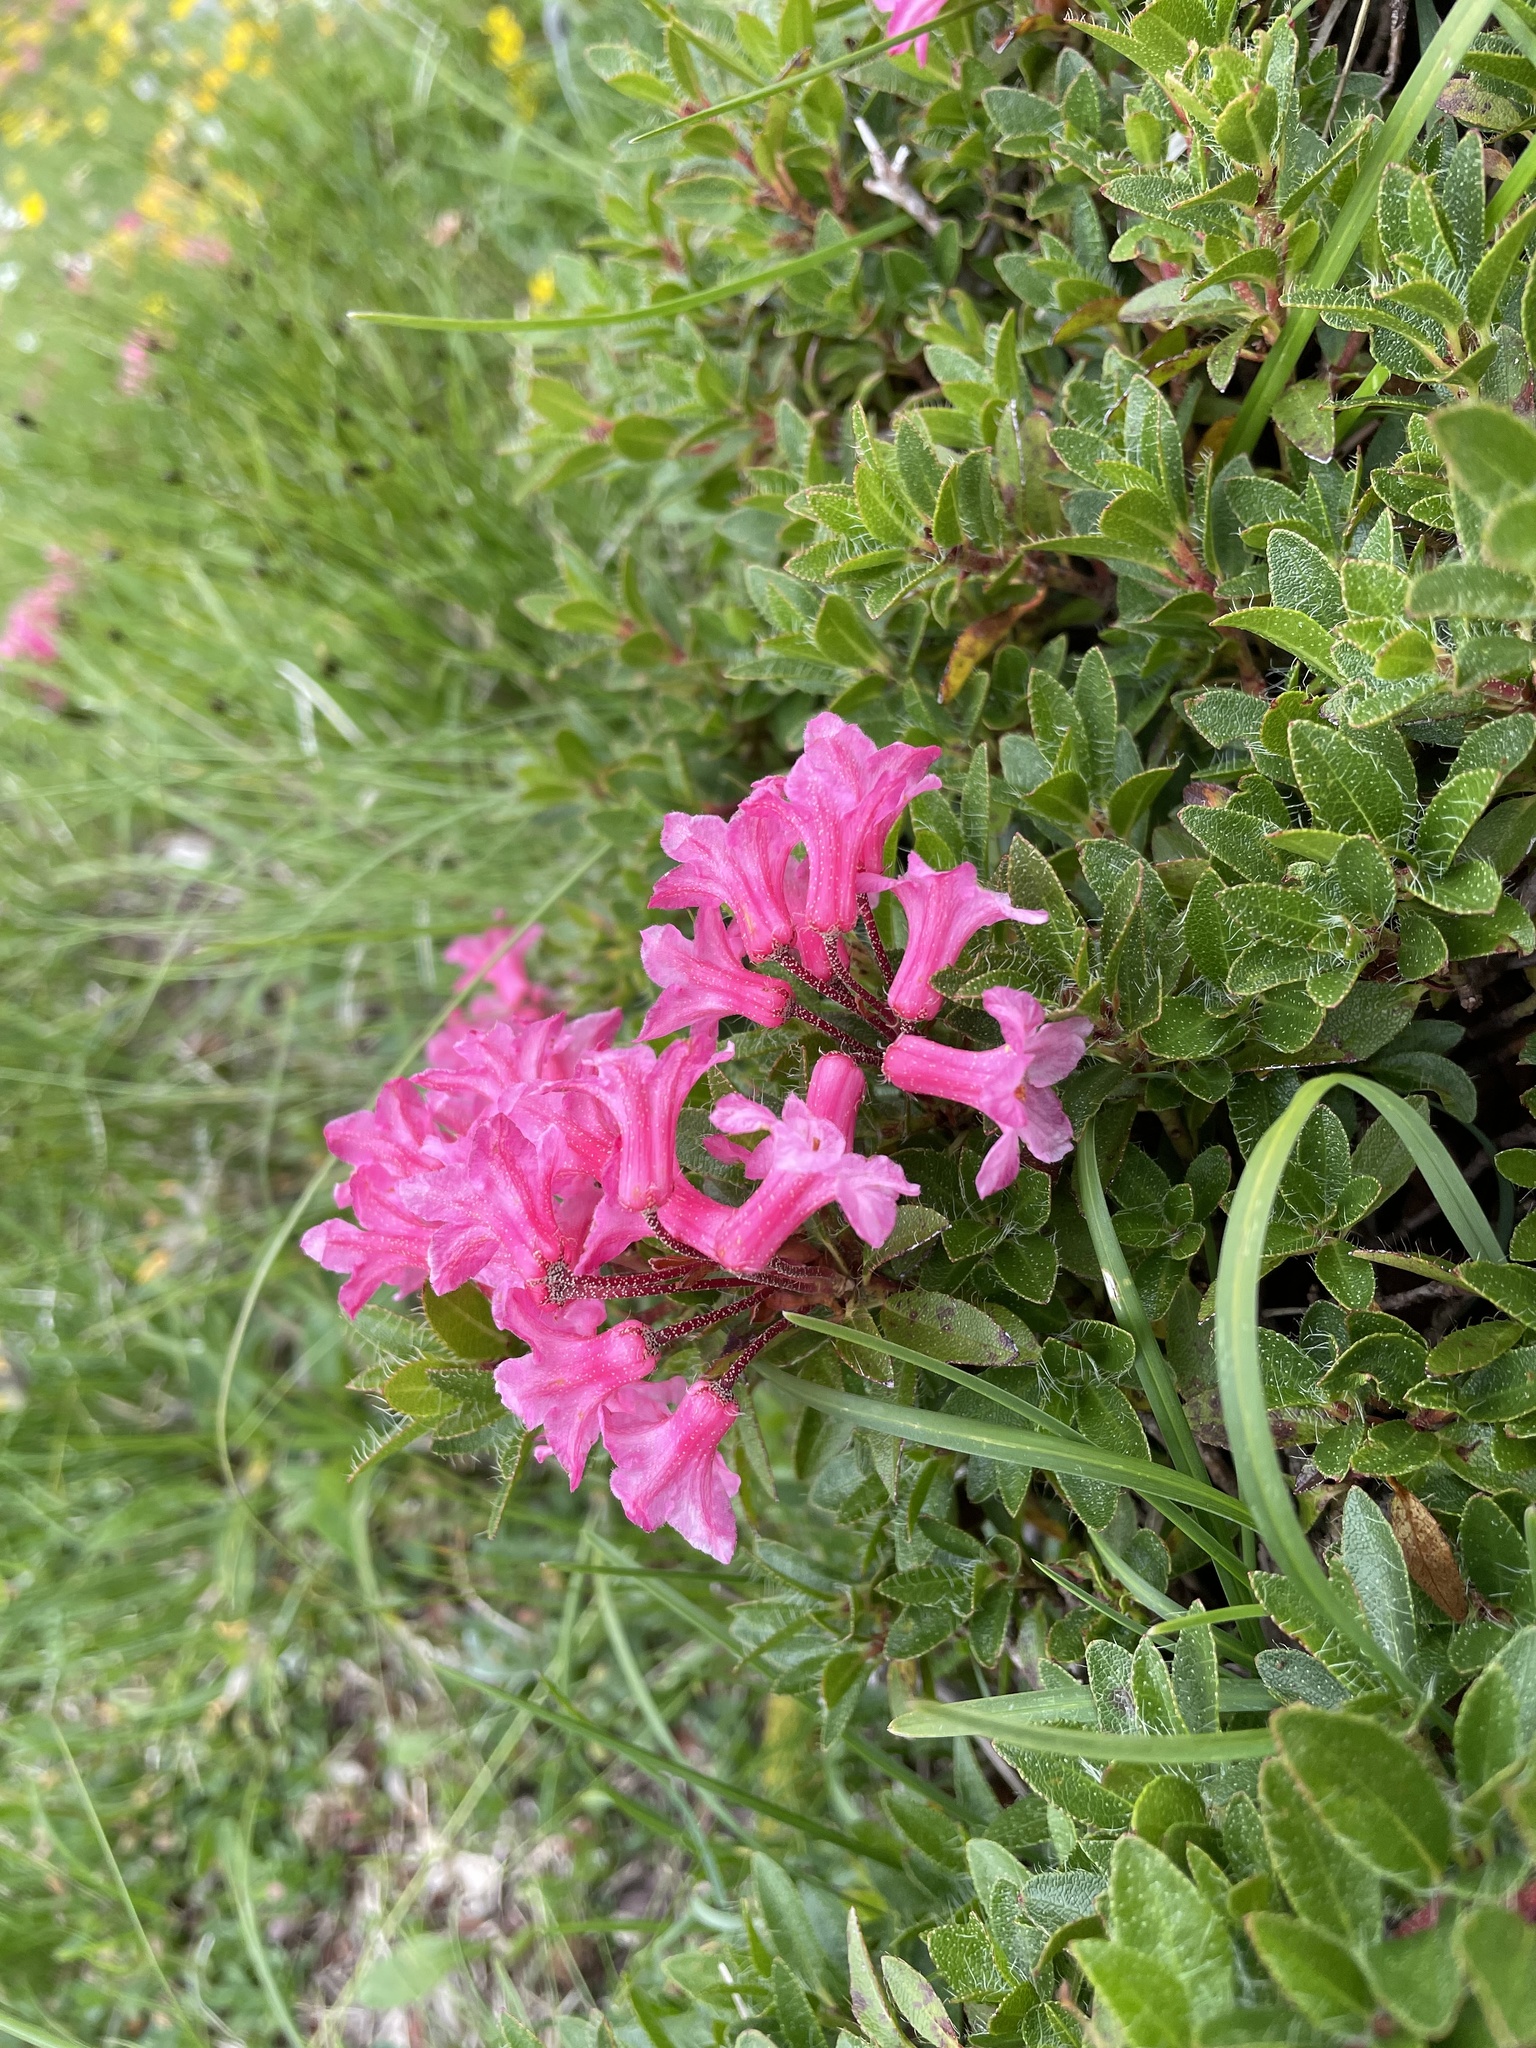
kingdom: Plantae
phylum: Tracheophyta
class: Magnoliopsida
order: Ericales
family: Ericaceae
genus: Rhododendron
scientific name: Rhododendron hirsutum
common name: Hairy alpenrose
